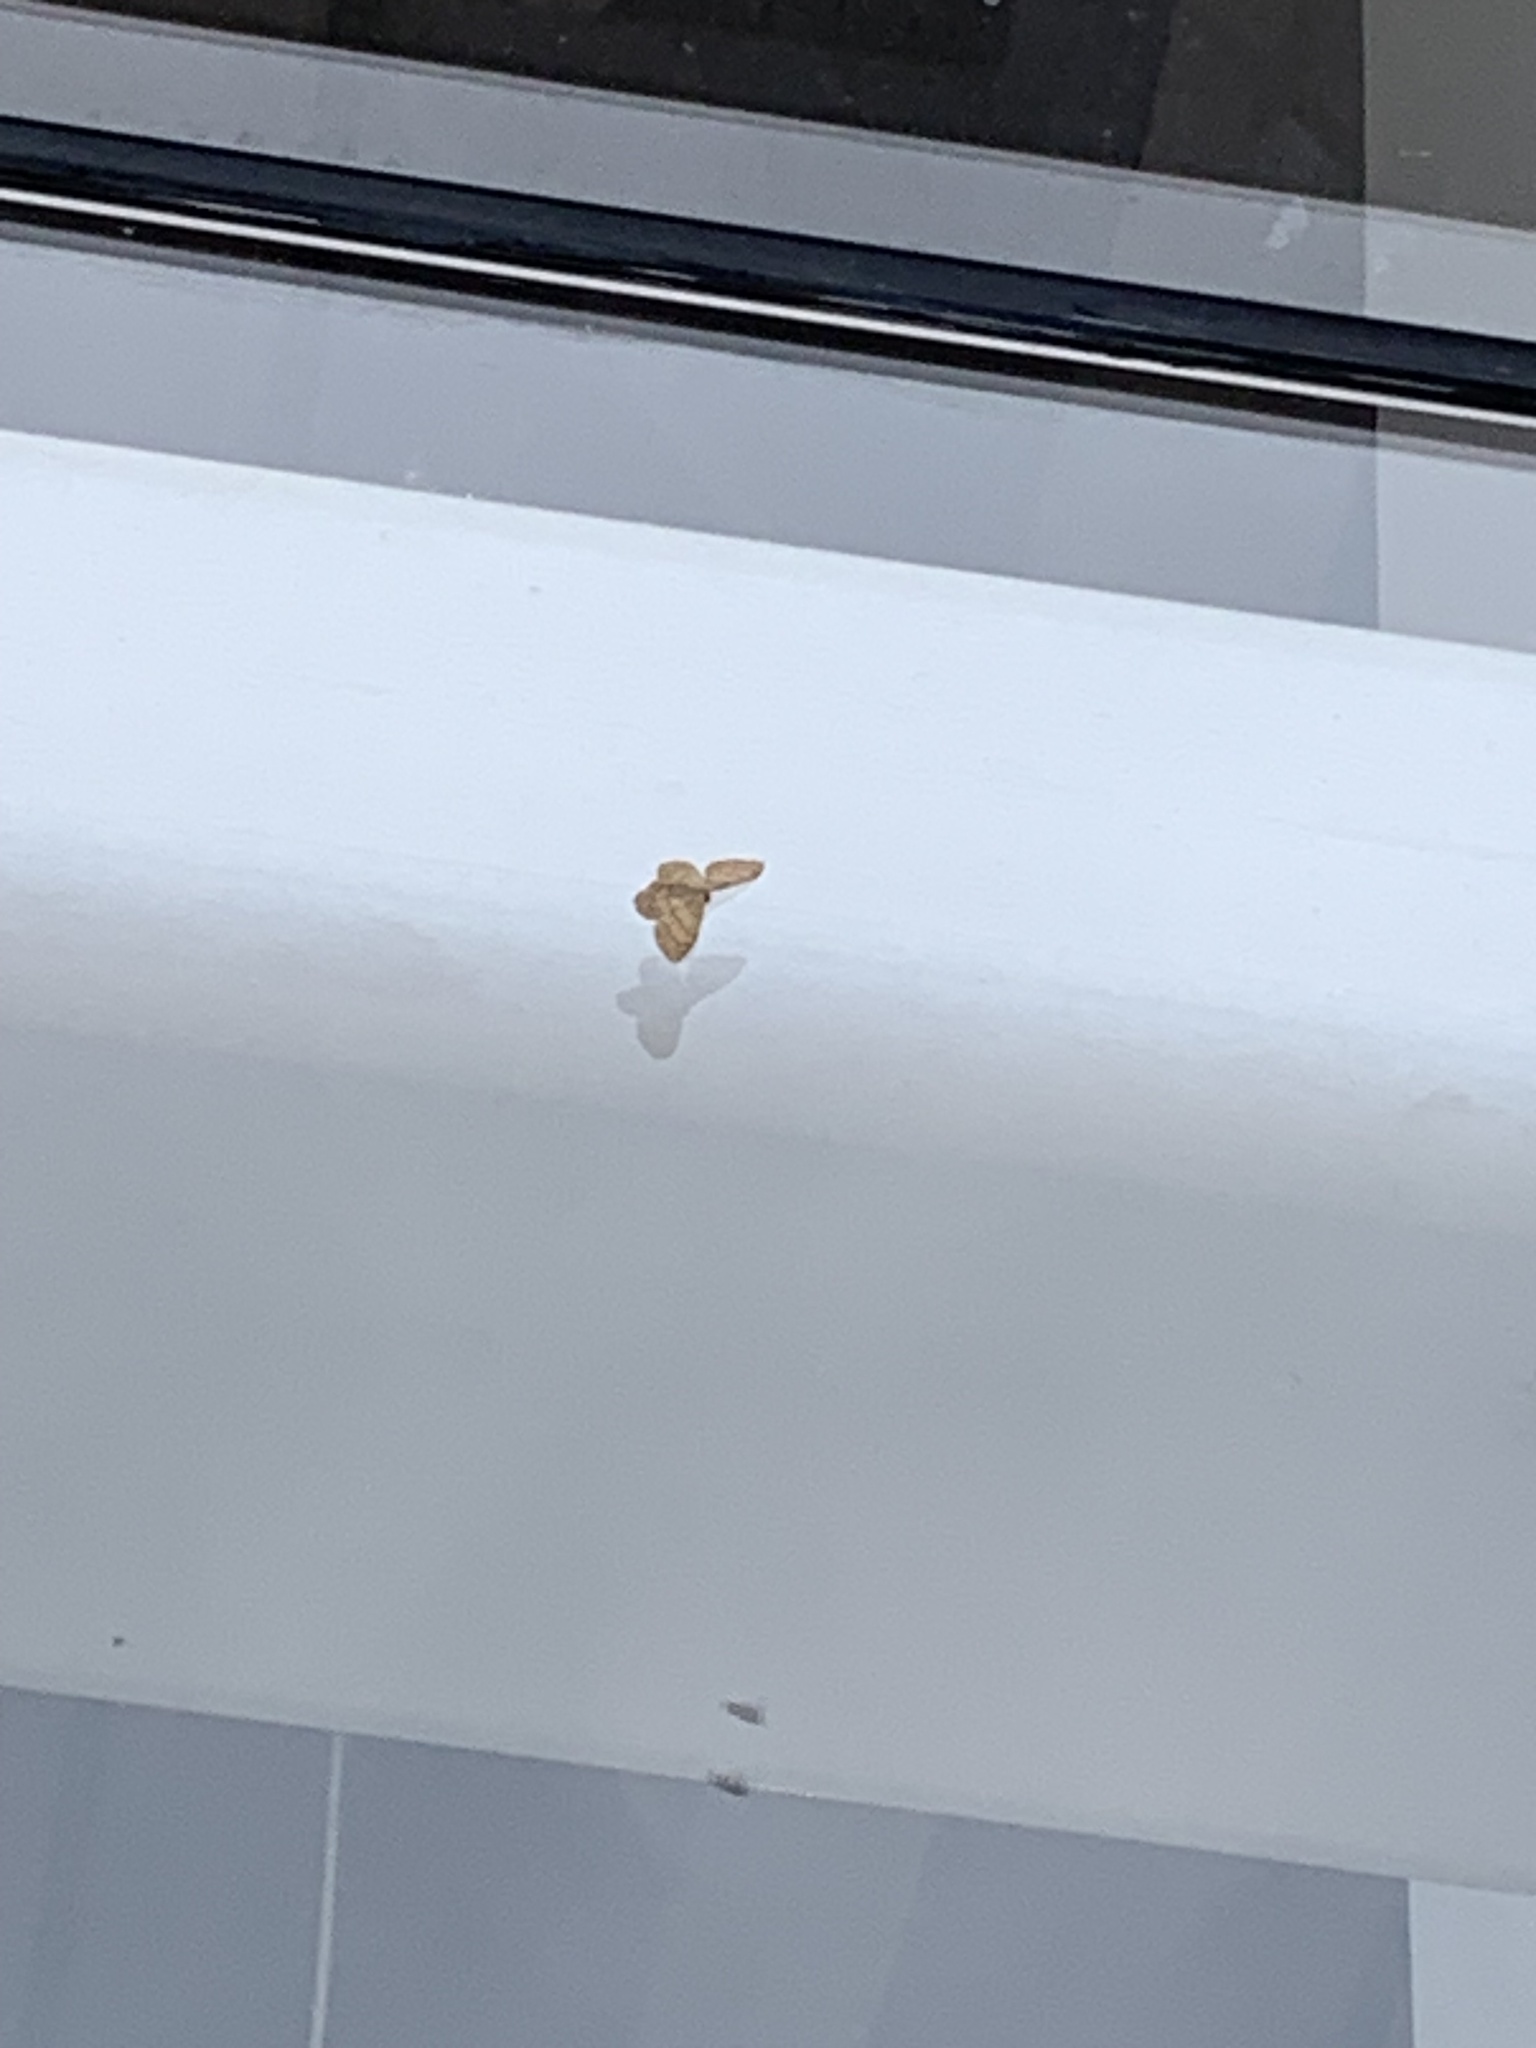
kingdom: Animalia
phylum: Arthropoda
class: Insecta
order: Lepidoptera
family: Geometridae
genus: Idaea
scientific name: Idaea aversata
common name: Riband wave
